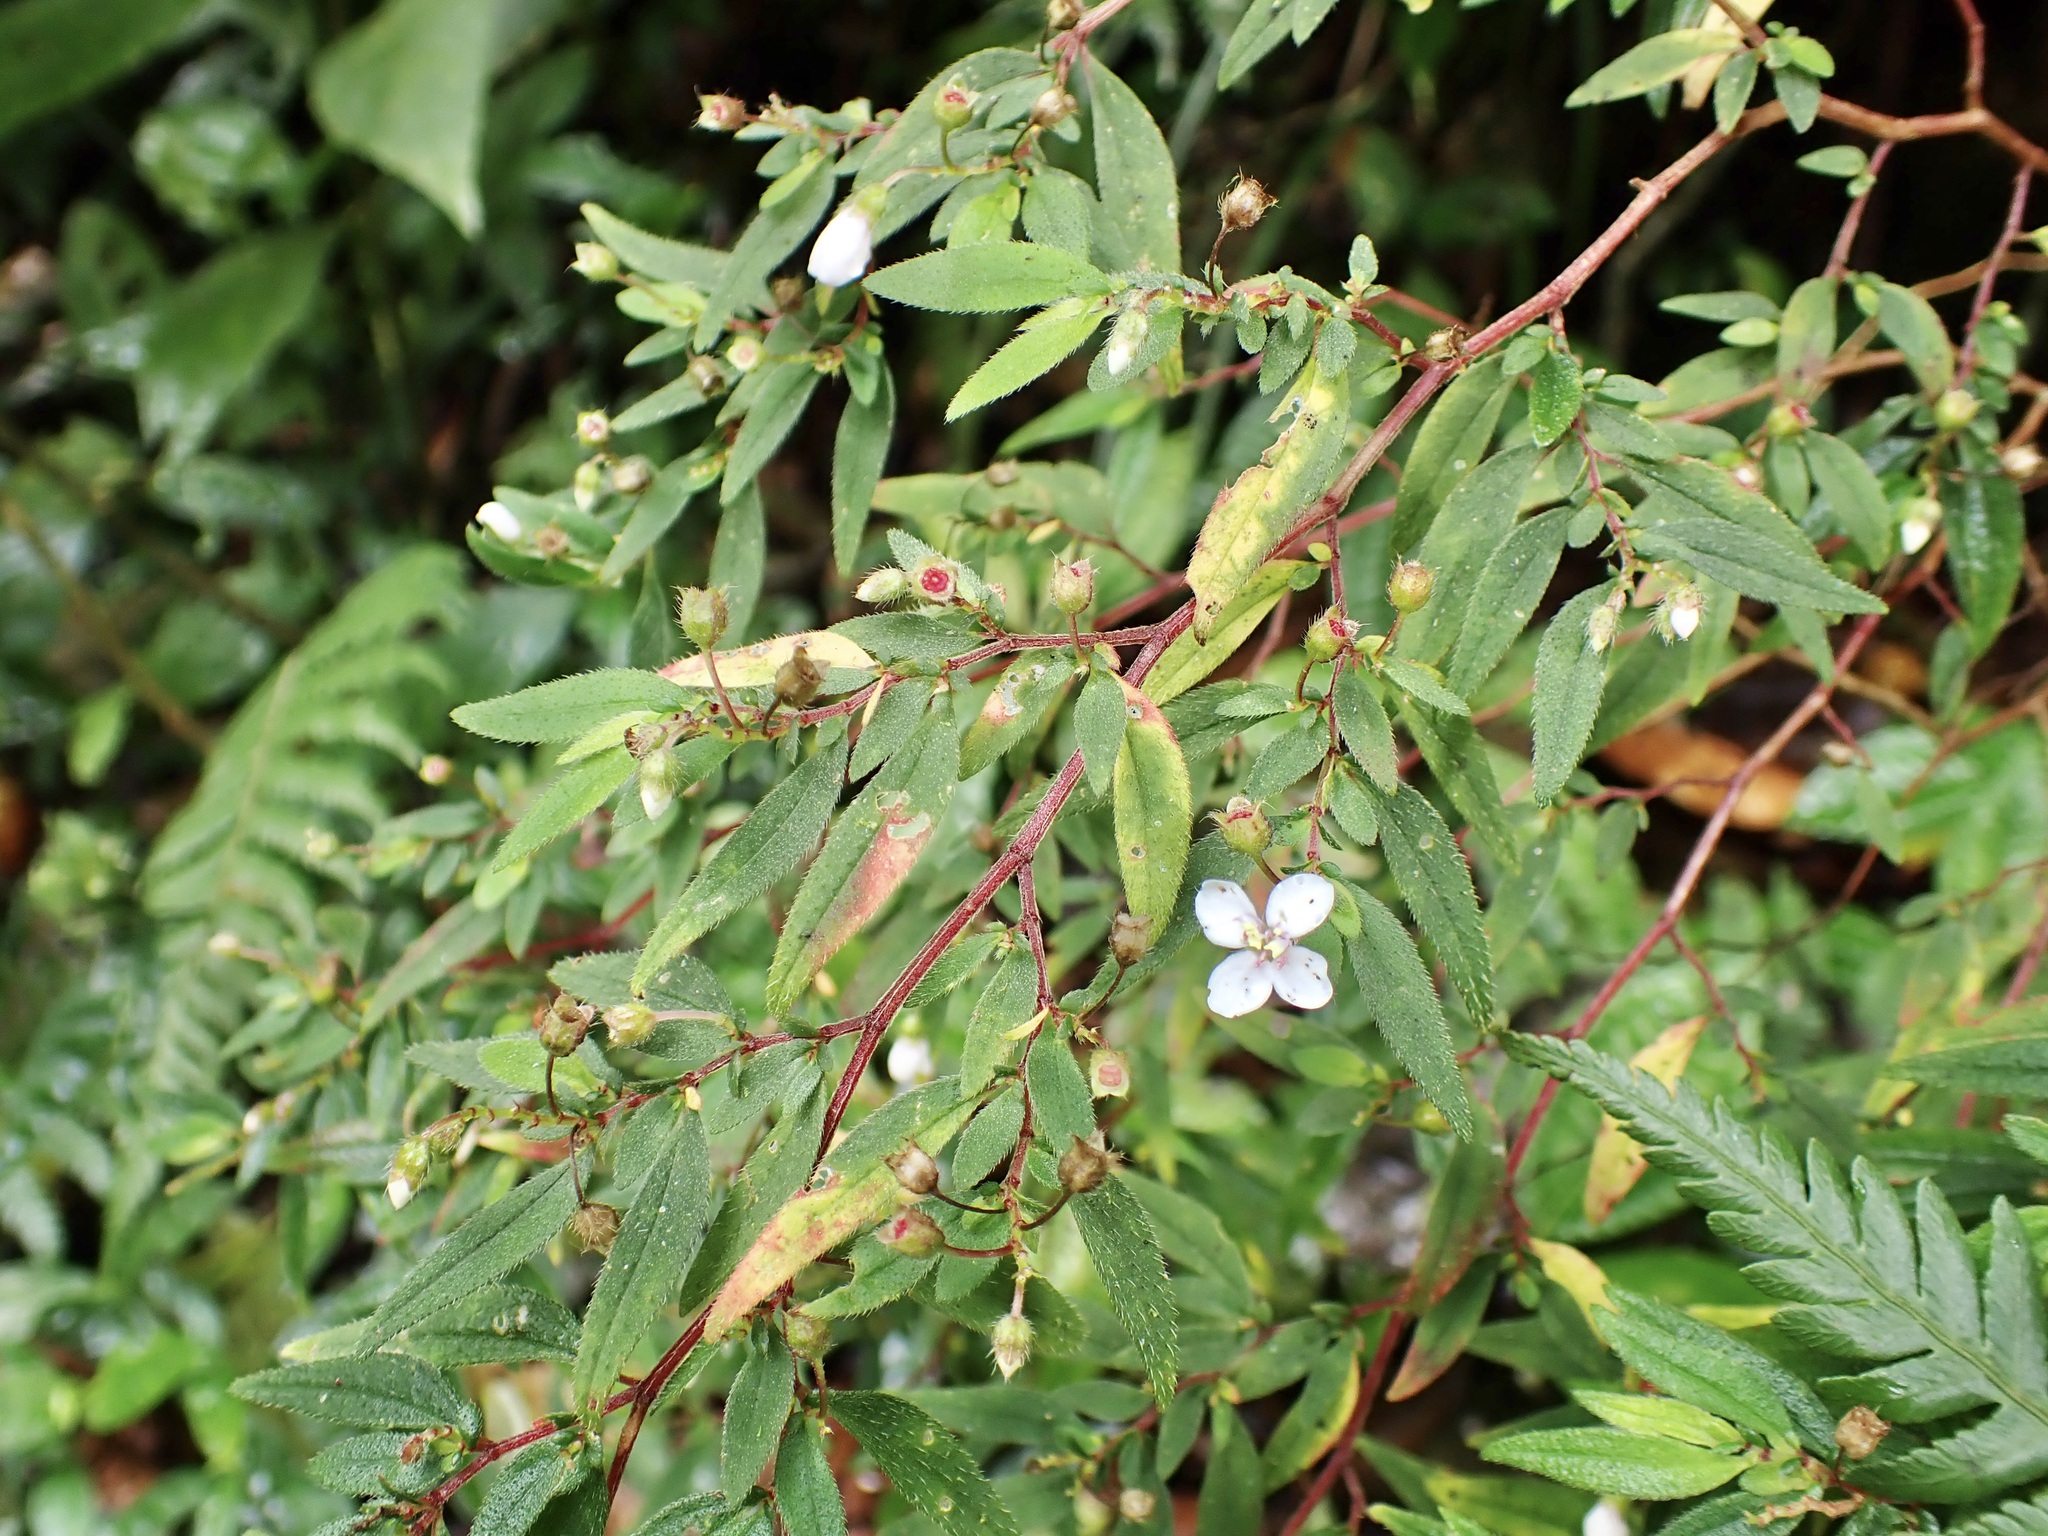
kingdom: Plantae
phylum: Tracheophyta
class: Magnoliopsida
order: Myrtales
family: Melastomataceae
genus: Centradenia
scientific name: Centradenia inaequilateralis
